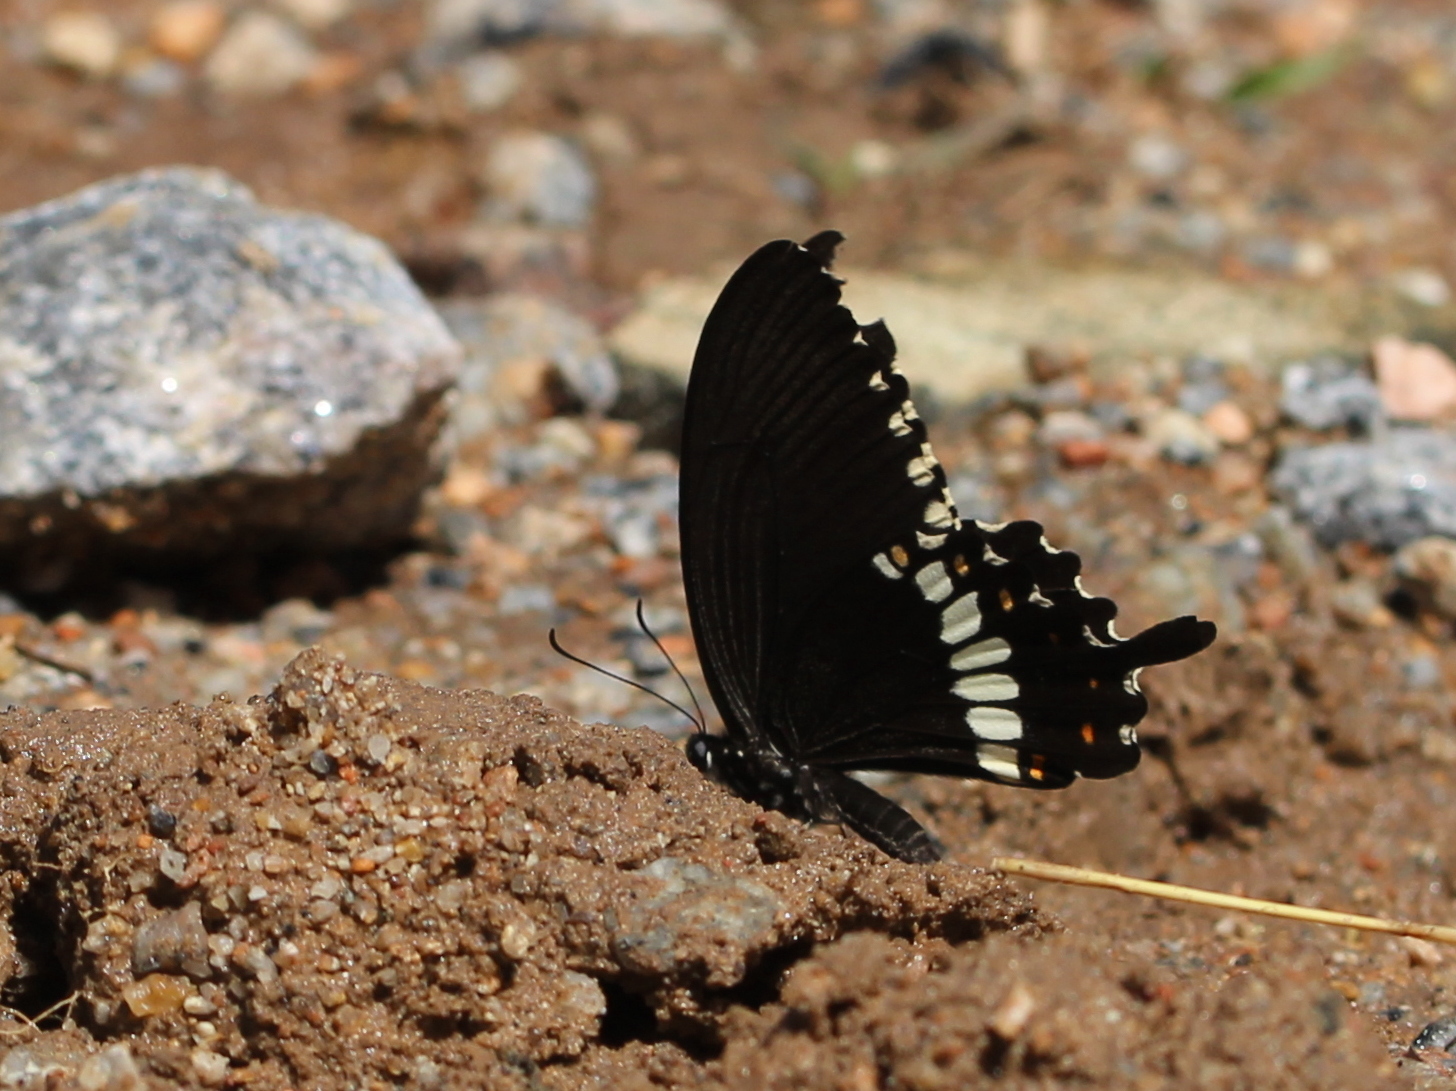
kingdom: Animalia
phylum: Arthropoda
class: Insecta
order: Lepidoptera
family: Papilionidae
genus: Papilio
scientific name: Papilio polytes
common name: Common mormon
